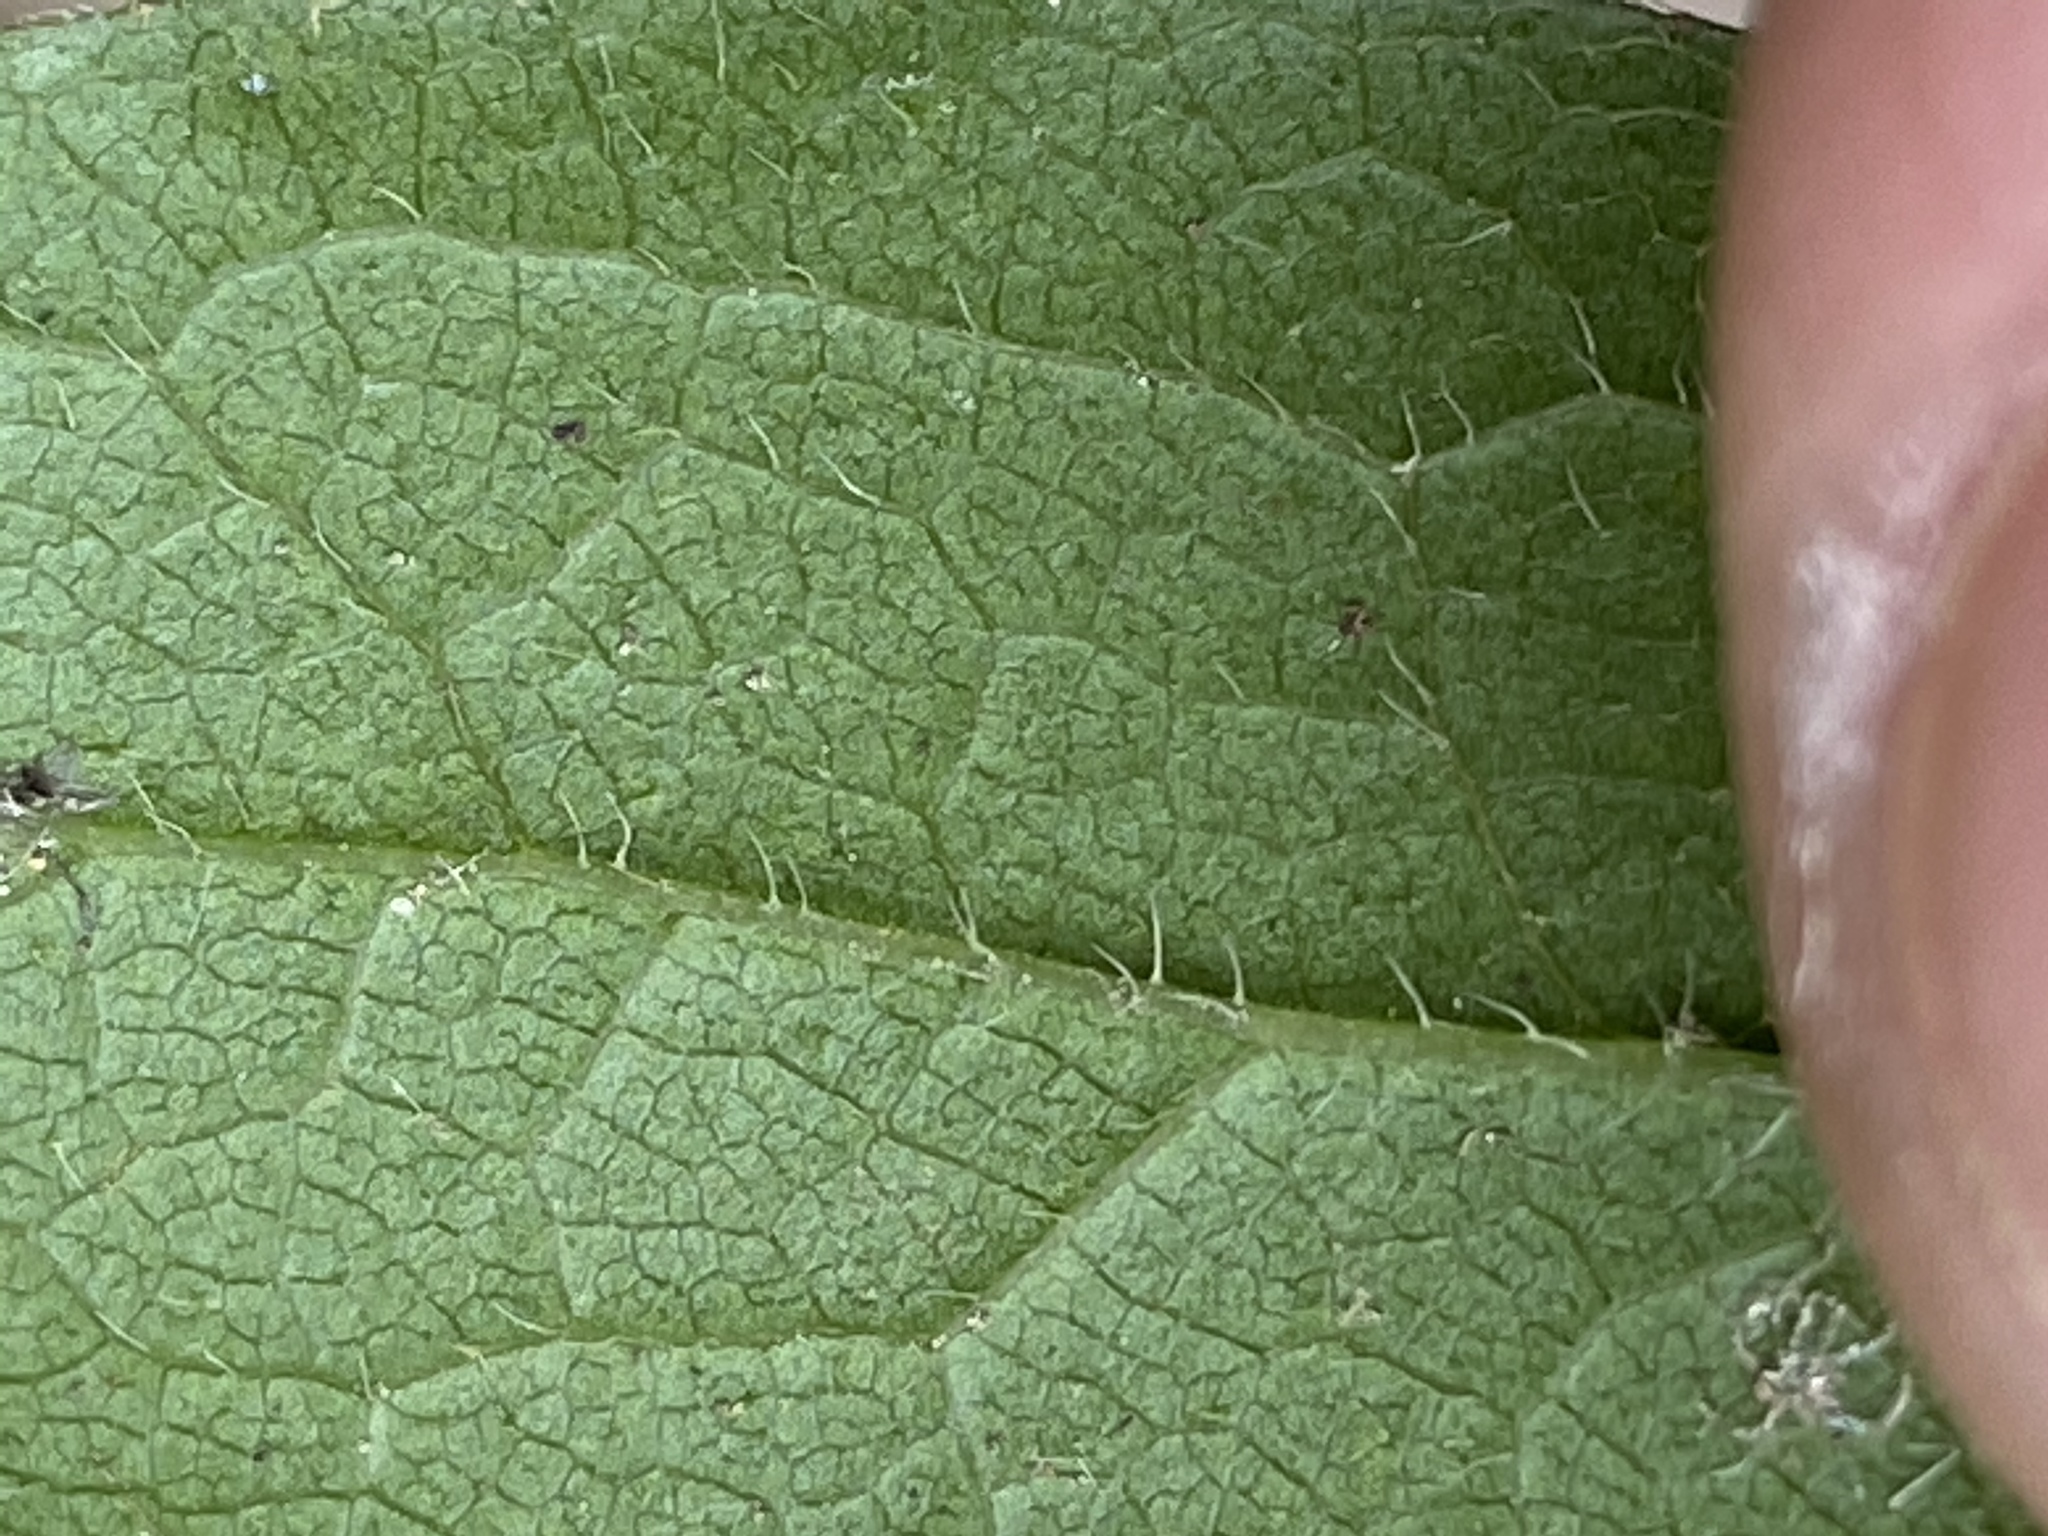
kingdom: Plantae
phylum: Tracheophyta
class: Magnoliopsida
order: Asterales
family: Asteraceae
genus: Solidago
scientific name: Solidago vaseyi
